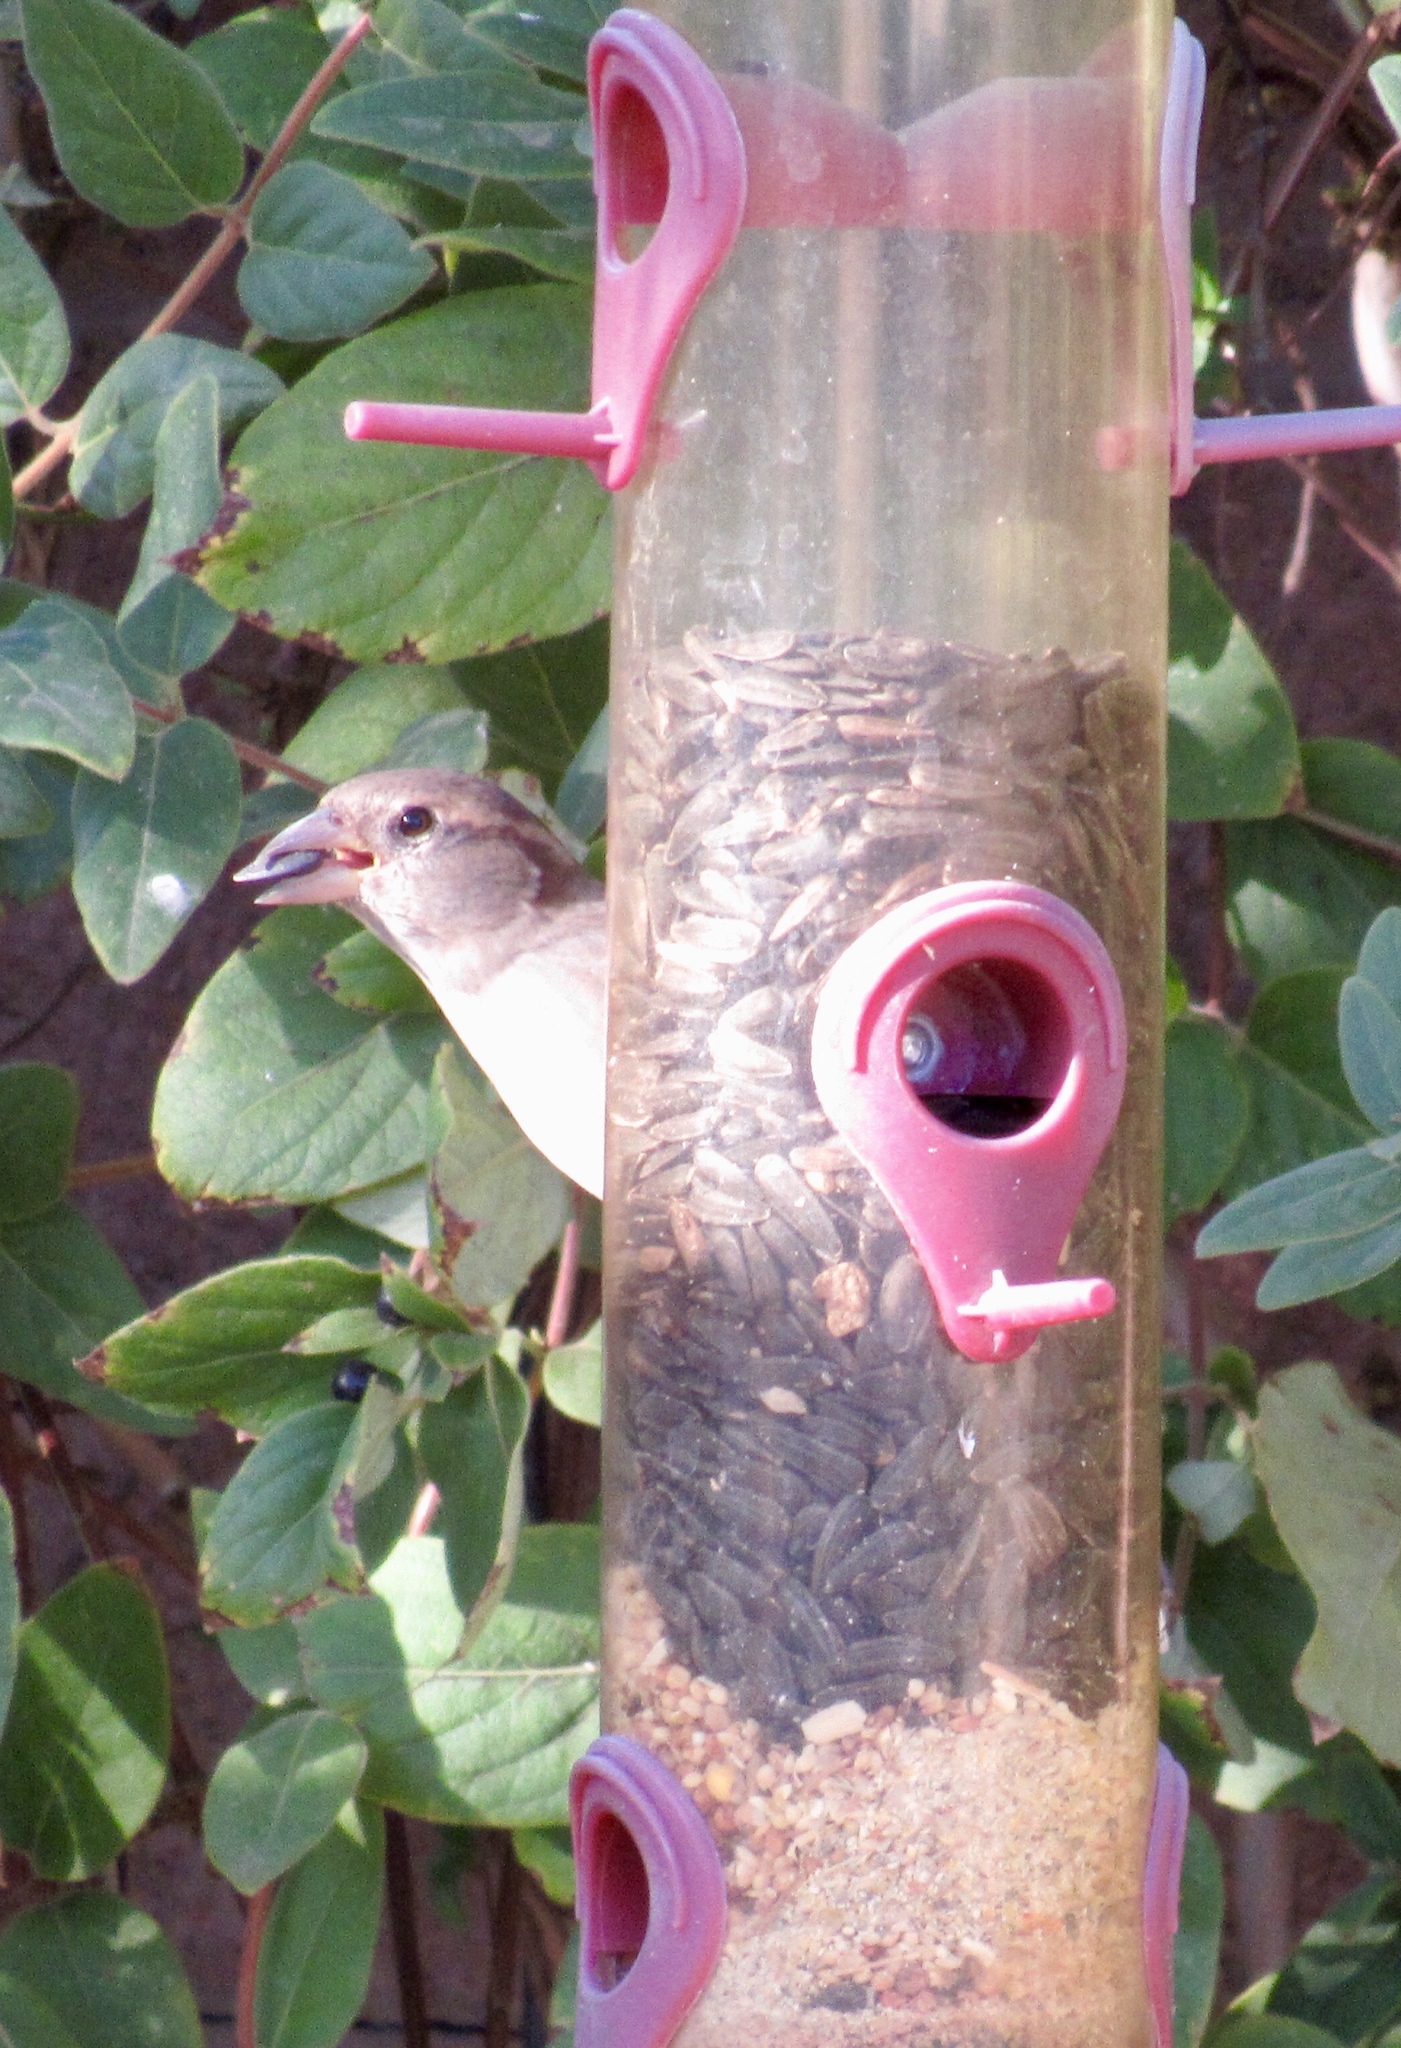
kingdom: Animalia
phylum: Chordata
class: Aves
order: Passeriformes
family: Passeridae
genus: Passer
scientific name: Passer domesticus
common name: House sparrow
